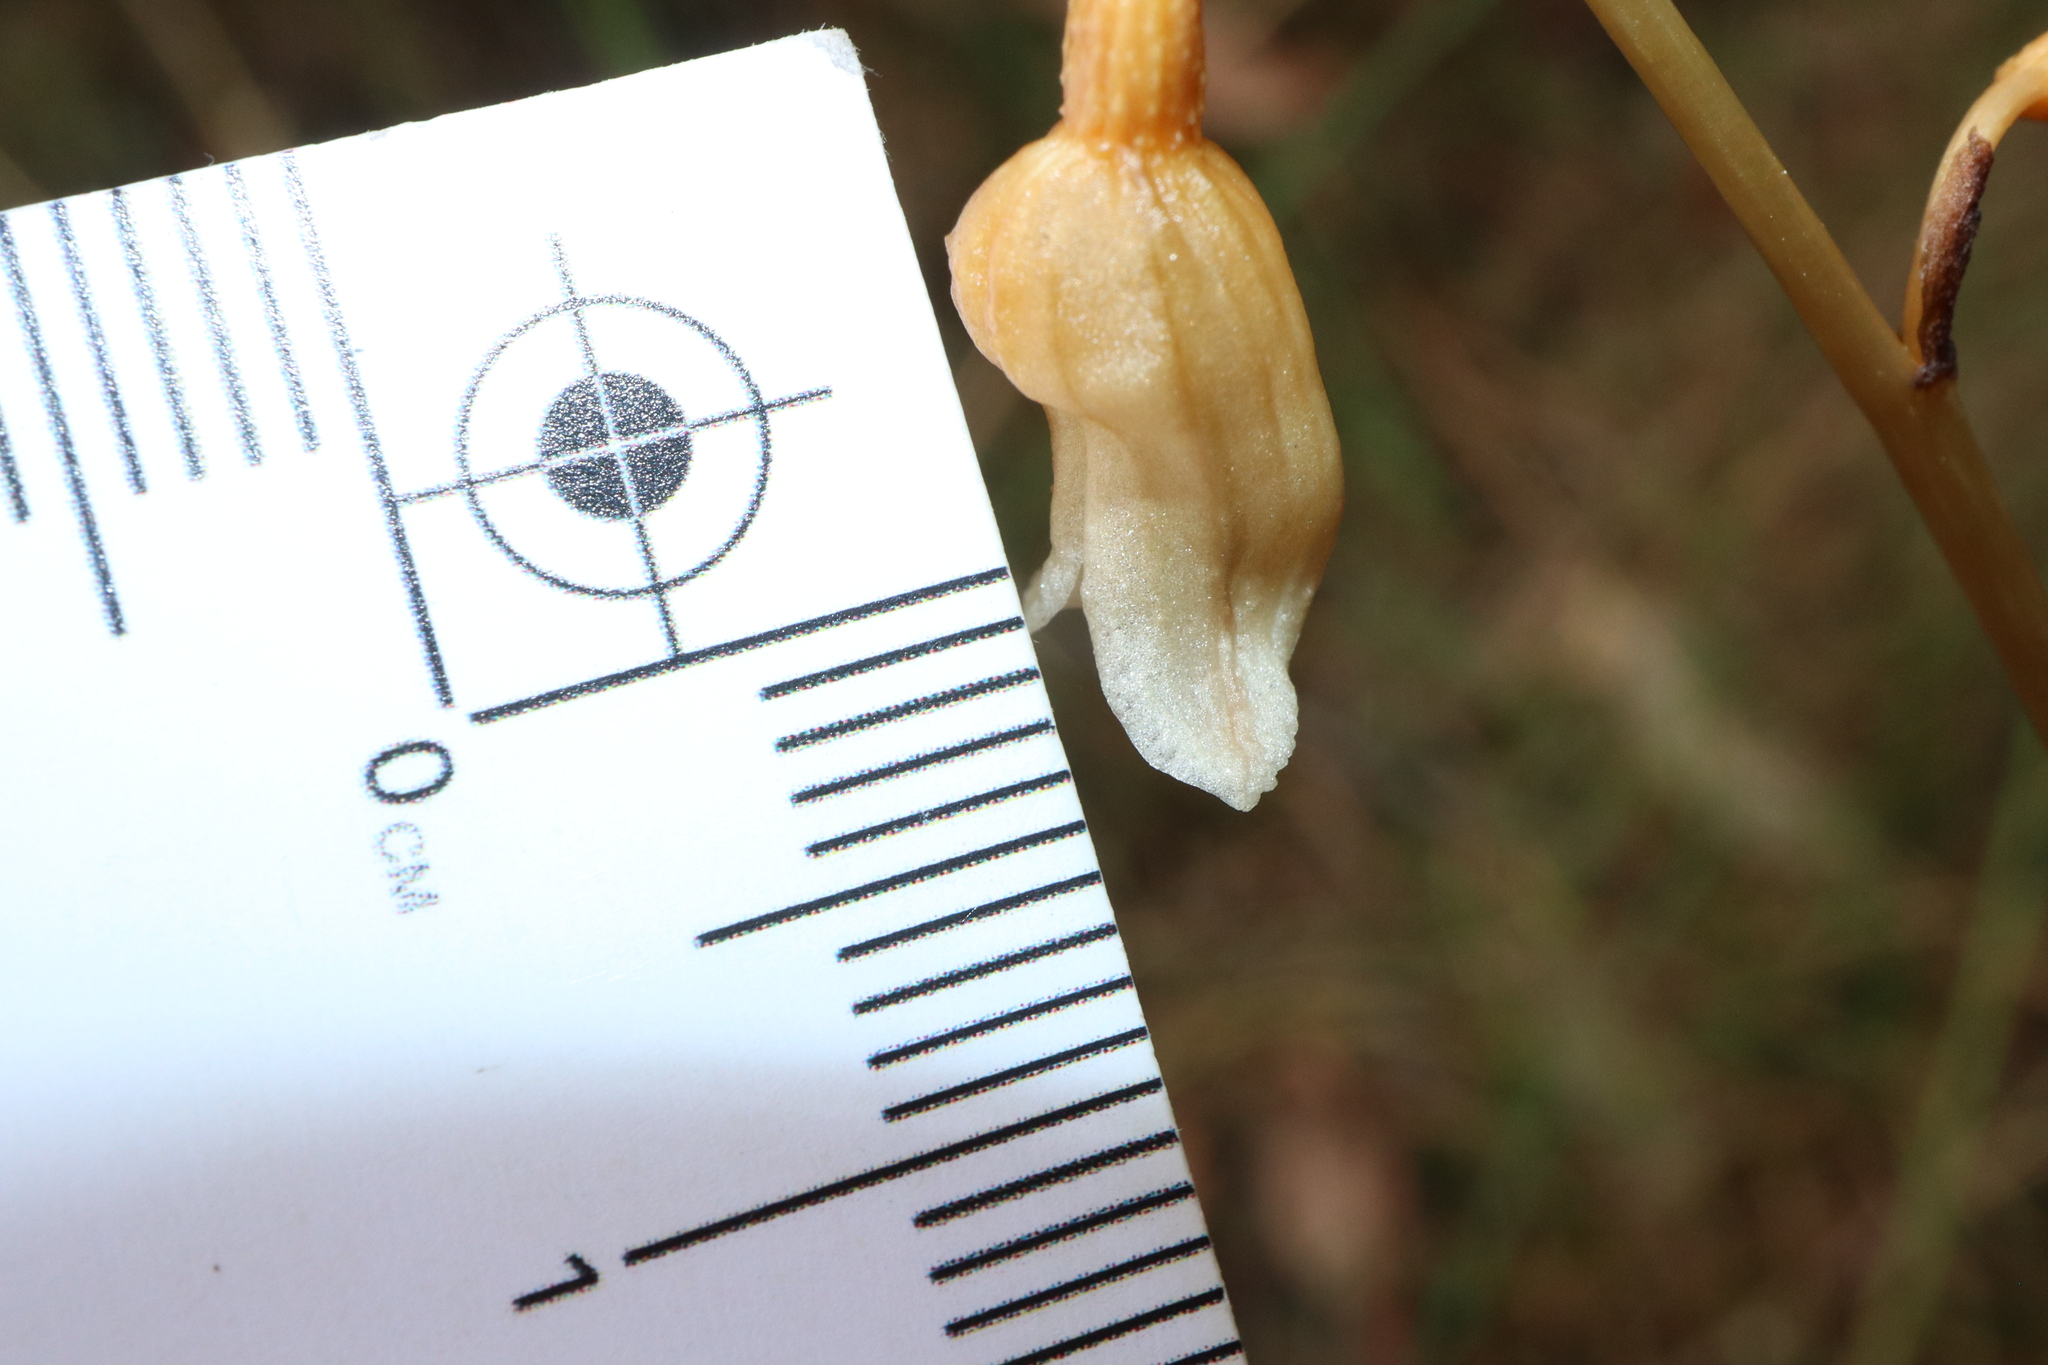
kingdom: Plantae
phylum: Tracheophyta
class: Liliopsida
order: Asparagales
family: Orchidaceae
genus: Gastrodia
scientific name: Gastrodia sesamoides
